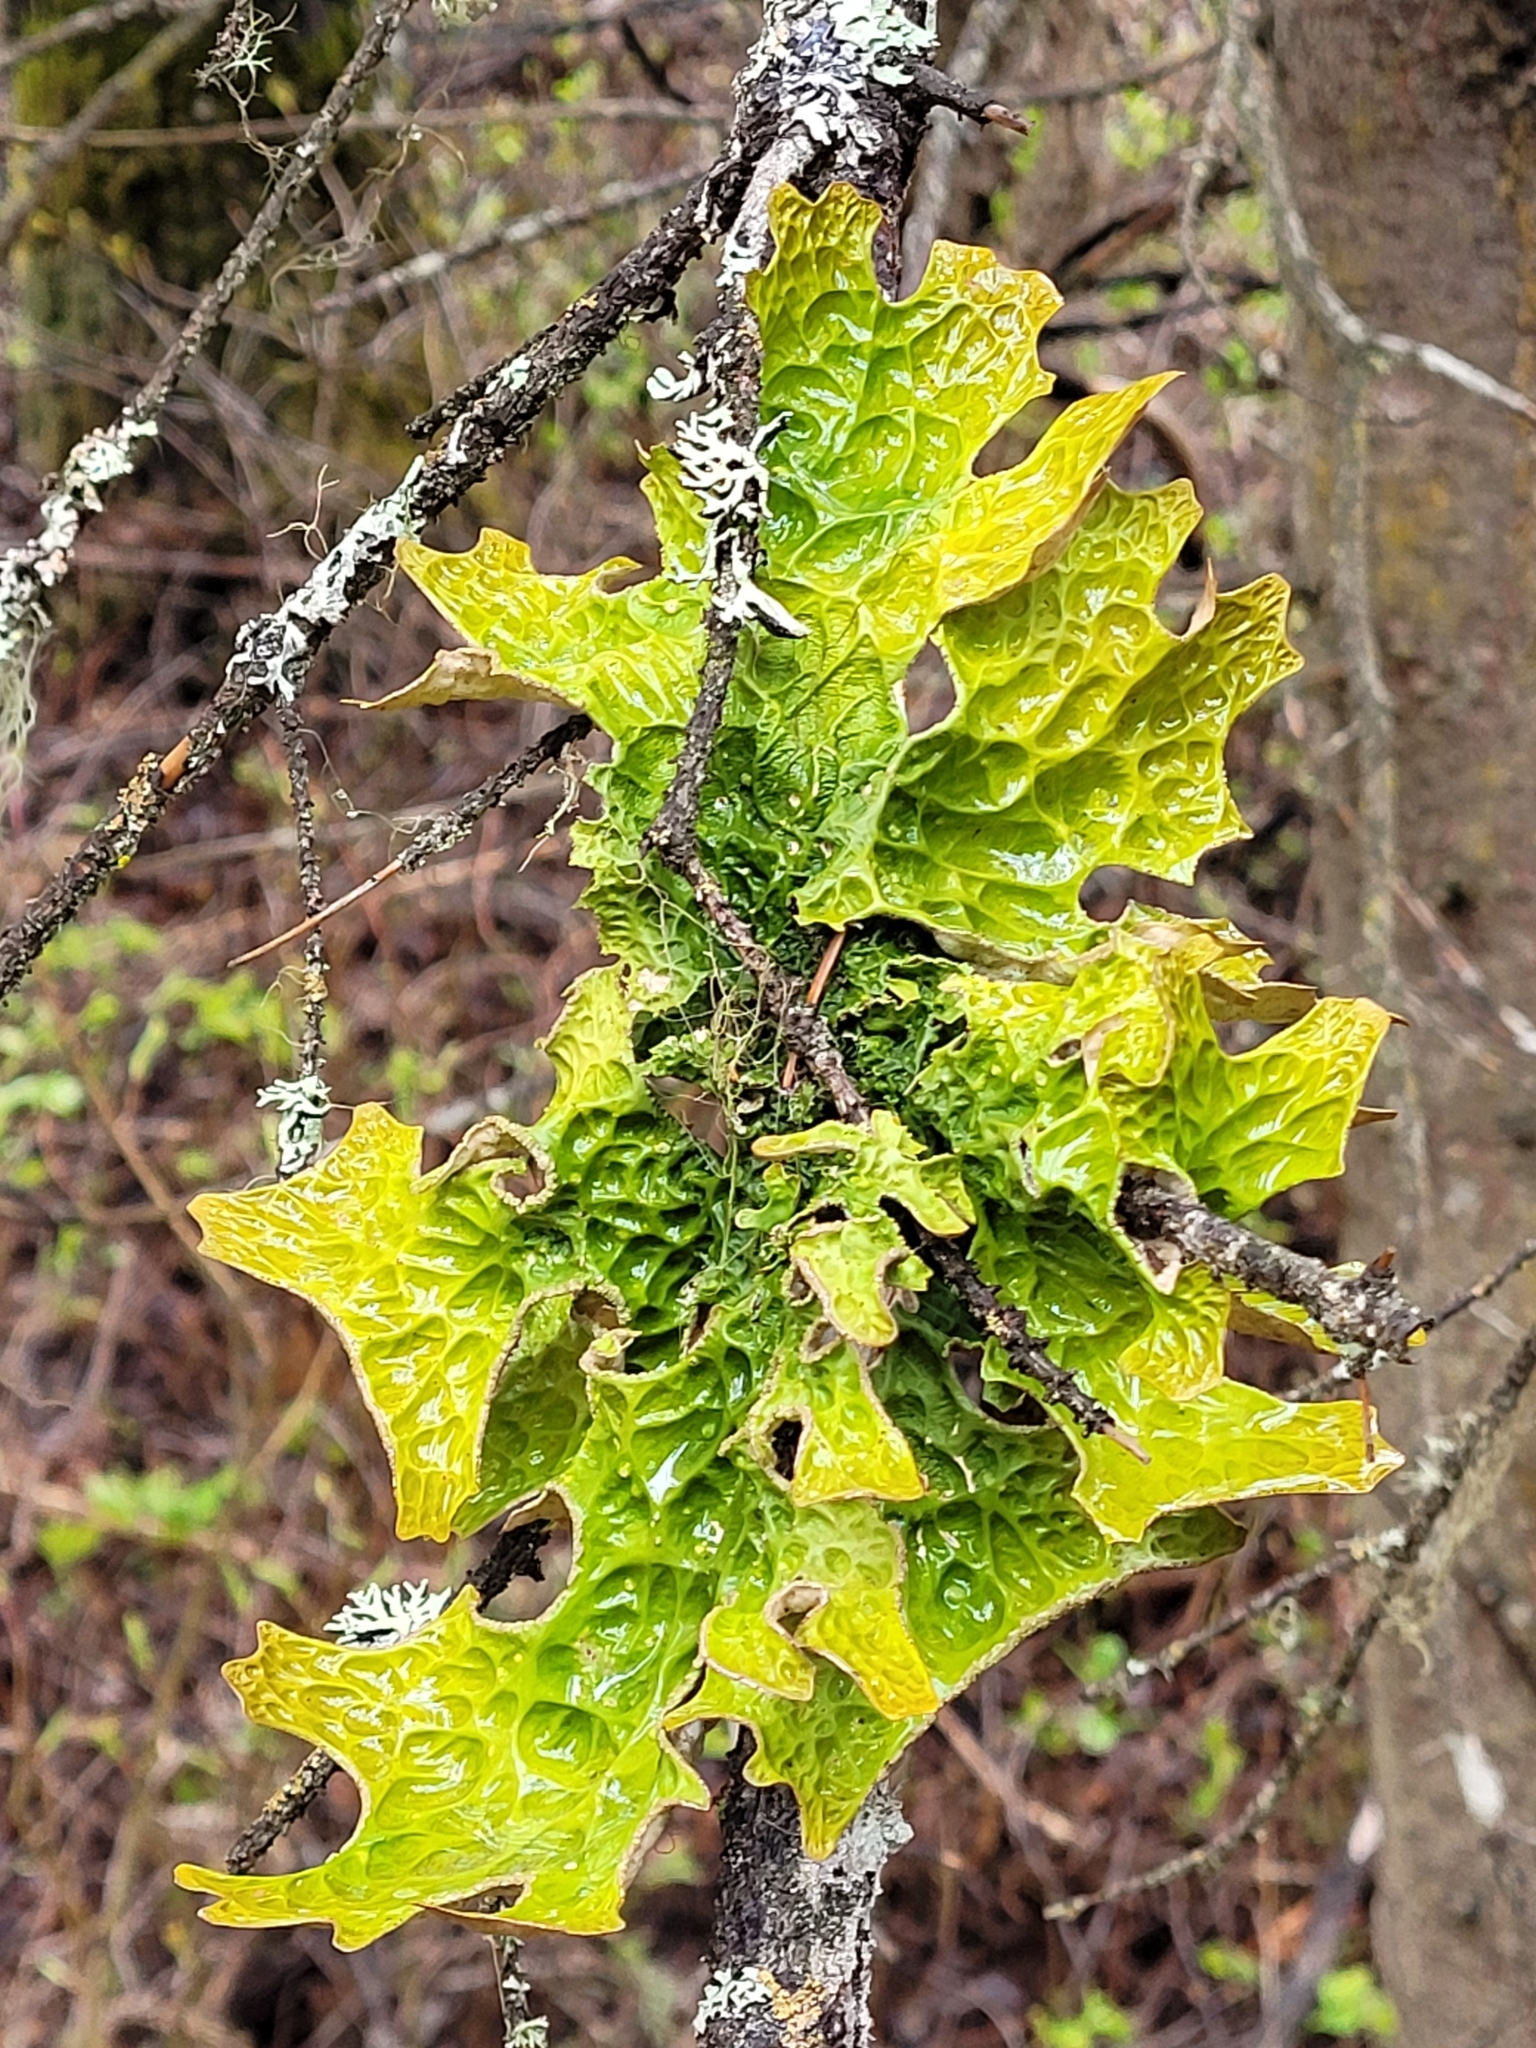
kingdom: Fungi
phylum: Ascomycota
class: Lecanoromycetes
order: Peltigerales
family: Lobariaceae
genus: Lobaria
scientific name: Lobaria pulmonaria
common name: Lungwort
